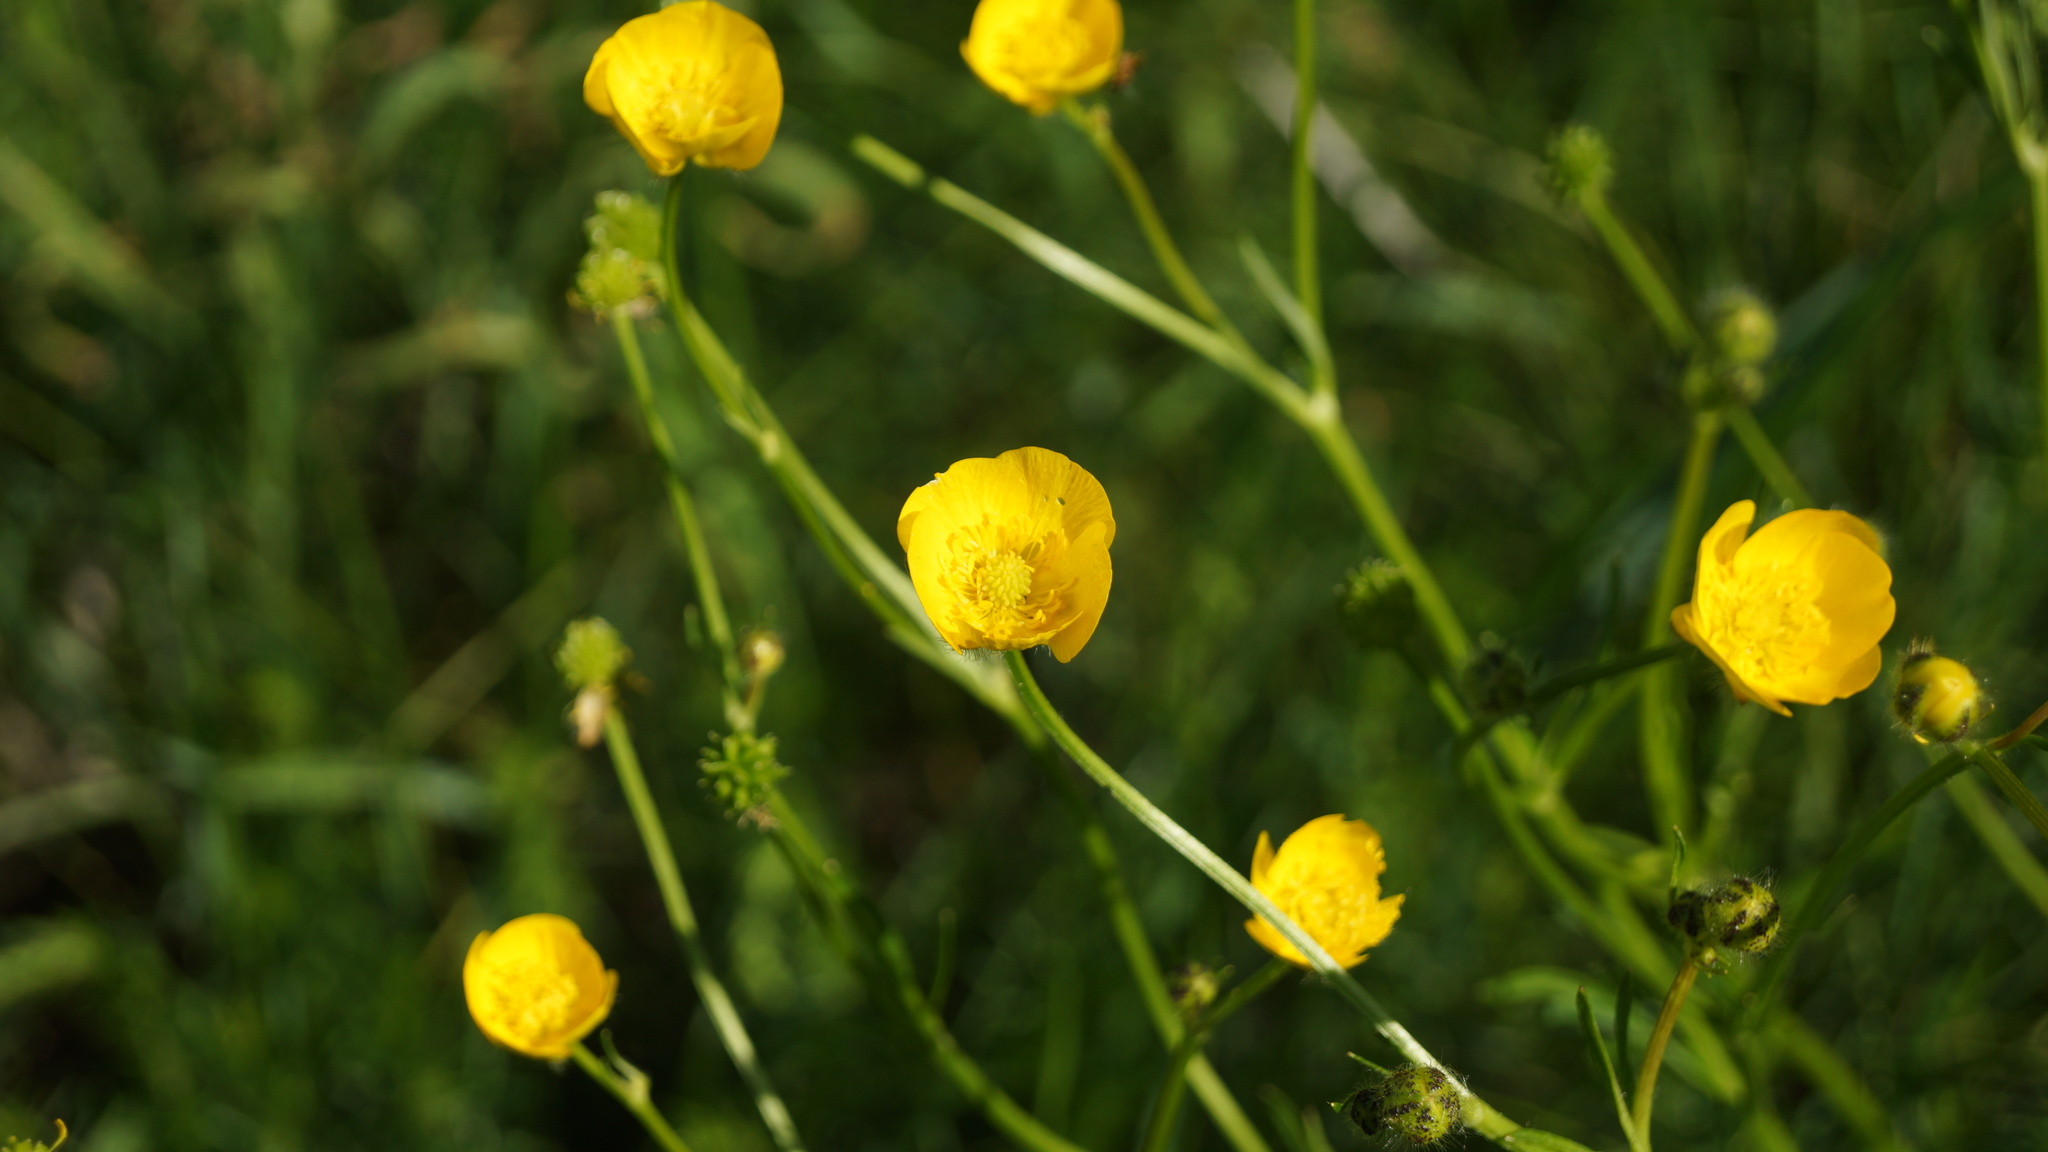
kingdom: Plantae
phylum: Tracheophyta
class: Magnoliopsida
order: Ranunculales
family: Ranunculaceae
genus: Ranunculus
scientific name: Ranunculus polyanthemos
